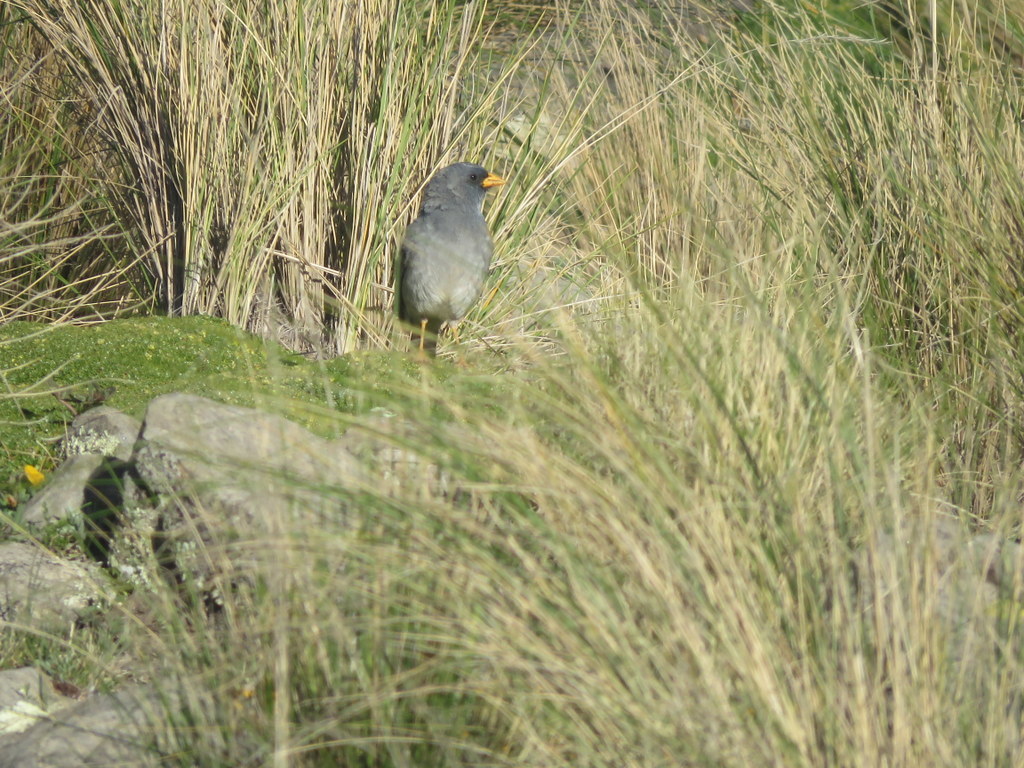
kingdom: Animalia
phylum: Chordata
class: Aves
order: Passeriformes
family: Thraupidae
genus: Porphyrospiza
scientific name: Porphyrospiza alaudina
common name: Band-tailed sierra finch
